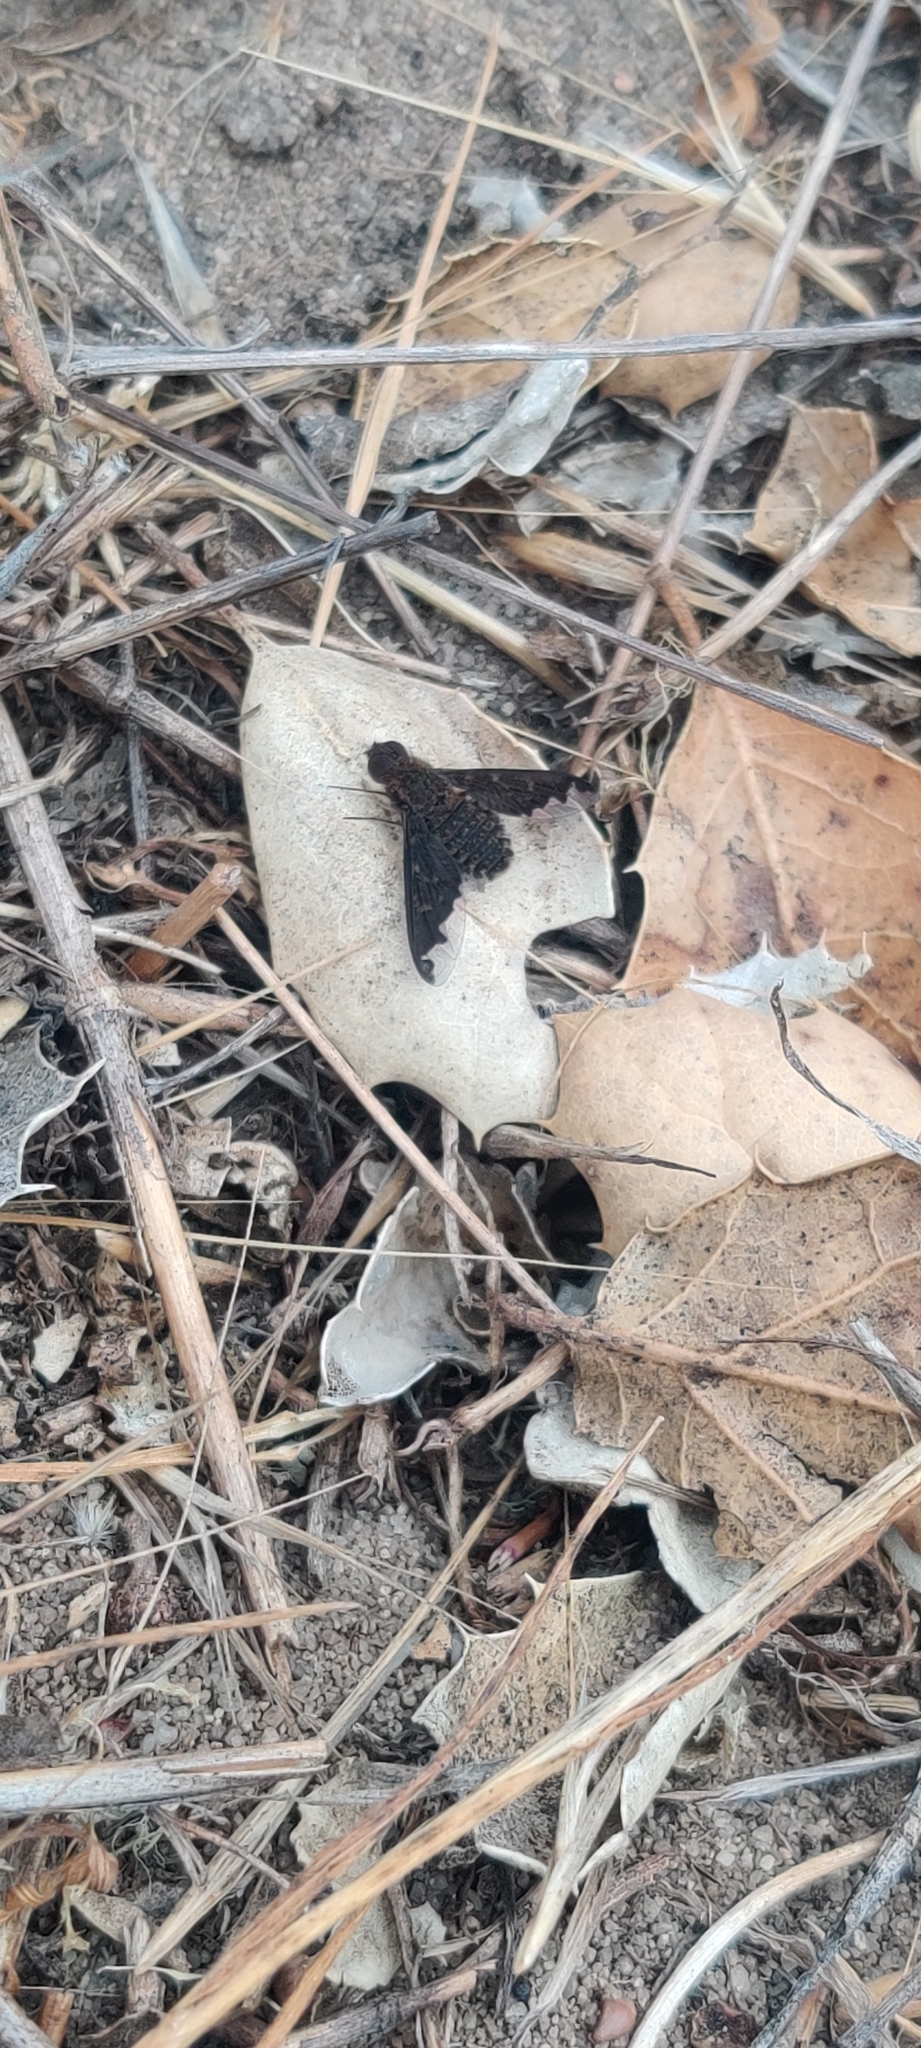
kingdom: Animalia
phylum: Arthropoda
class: Insecta
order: Diptera
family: Bombyliidae
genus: Hemipenthes
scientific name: Hemipenthes sinuosus
